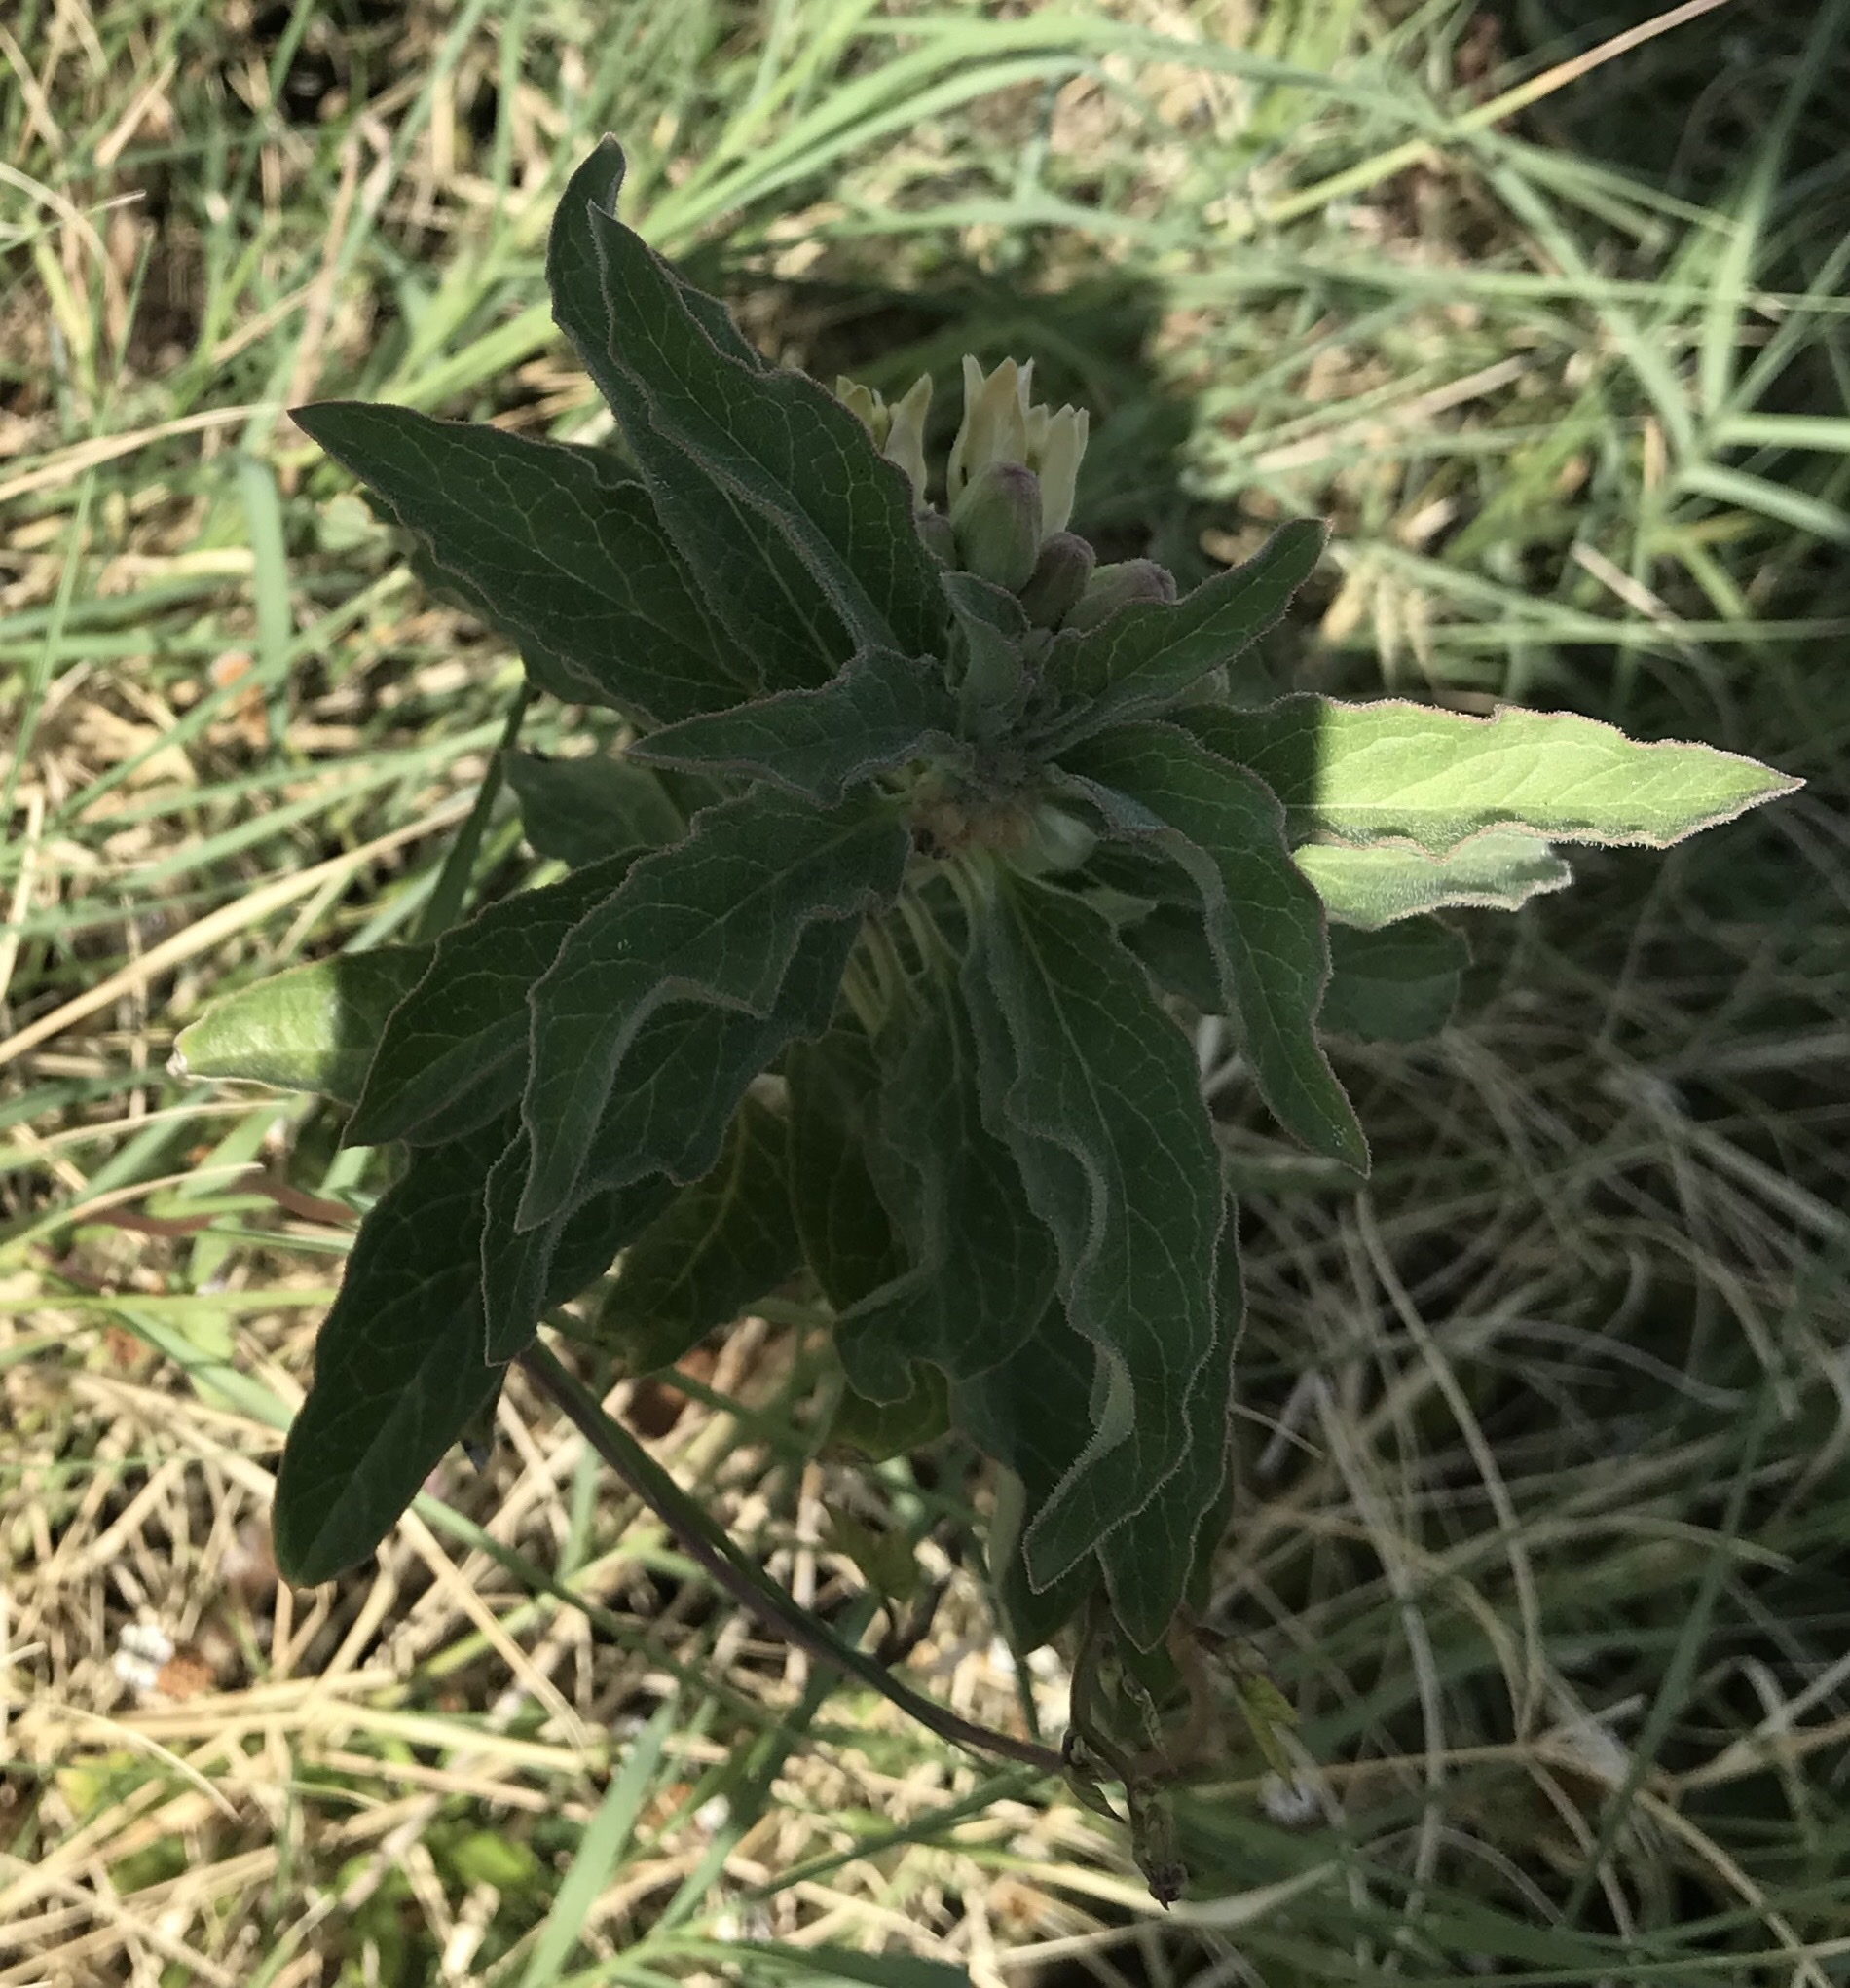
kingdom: Plantae
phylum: Tracheophyta
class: Magnoliopsida
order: Gentianales
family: Apocynaceae
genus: Asclepias
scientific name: Asclepias oenotheroides
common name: Zizotes milkweed
